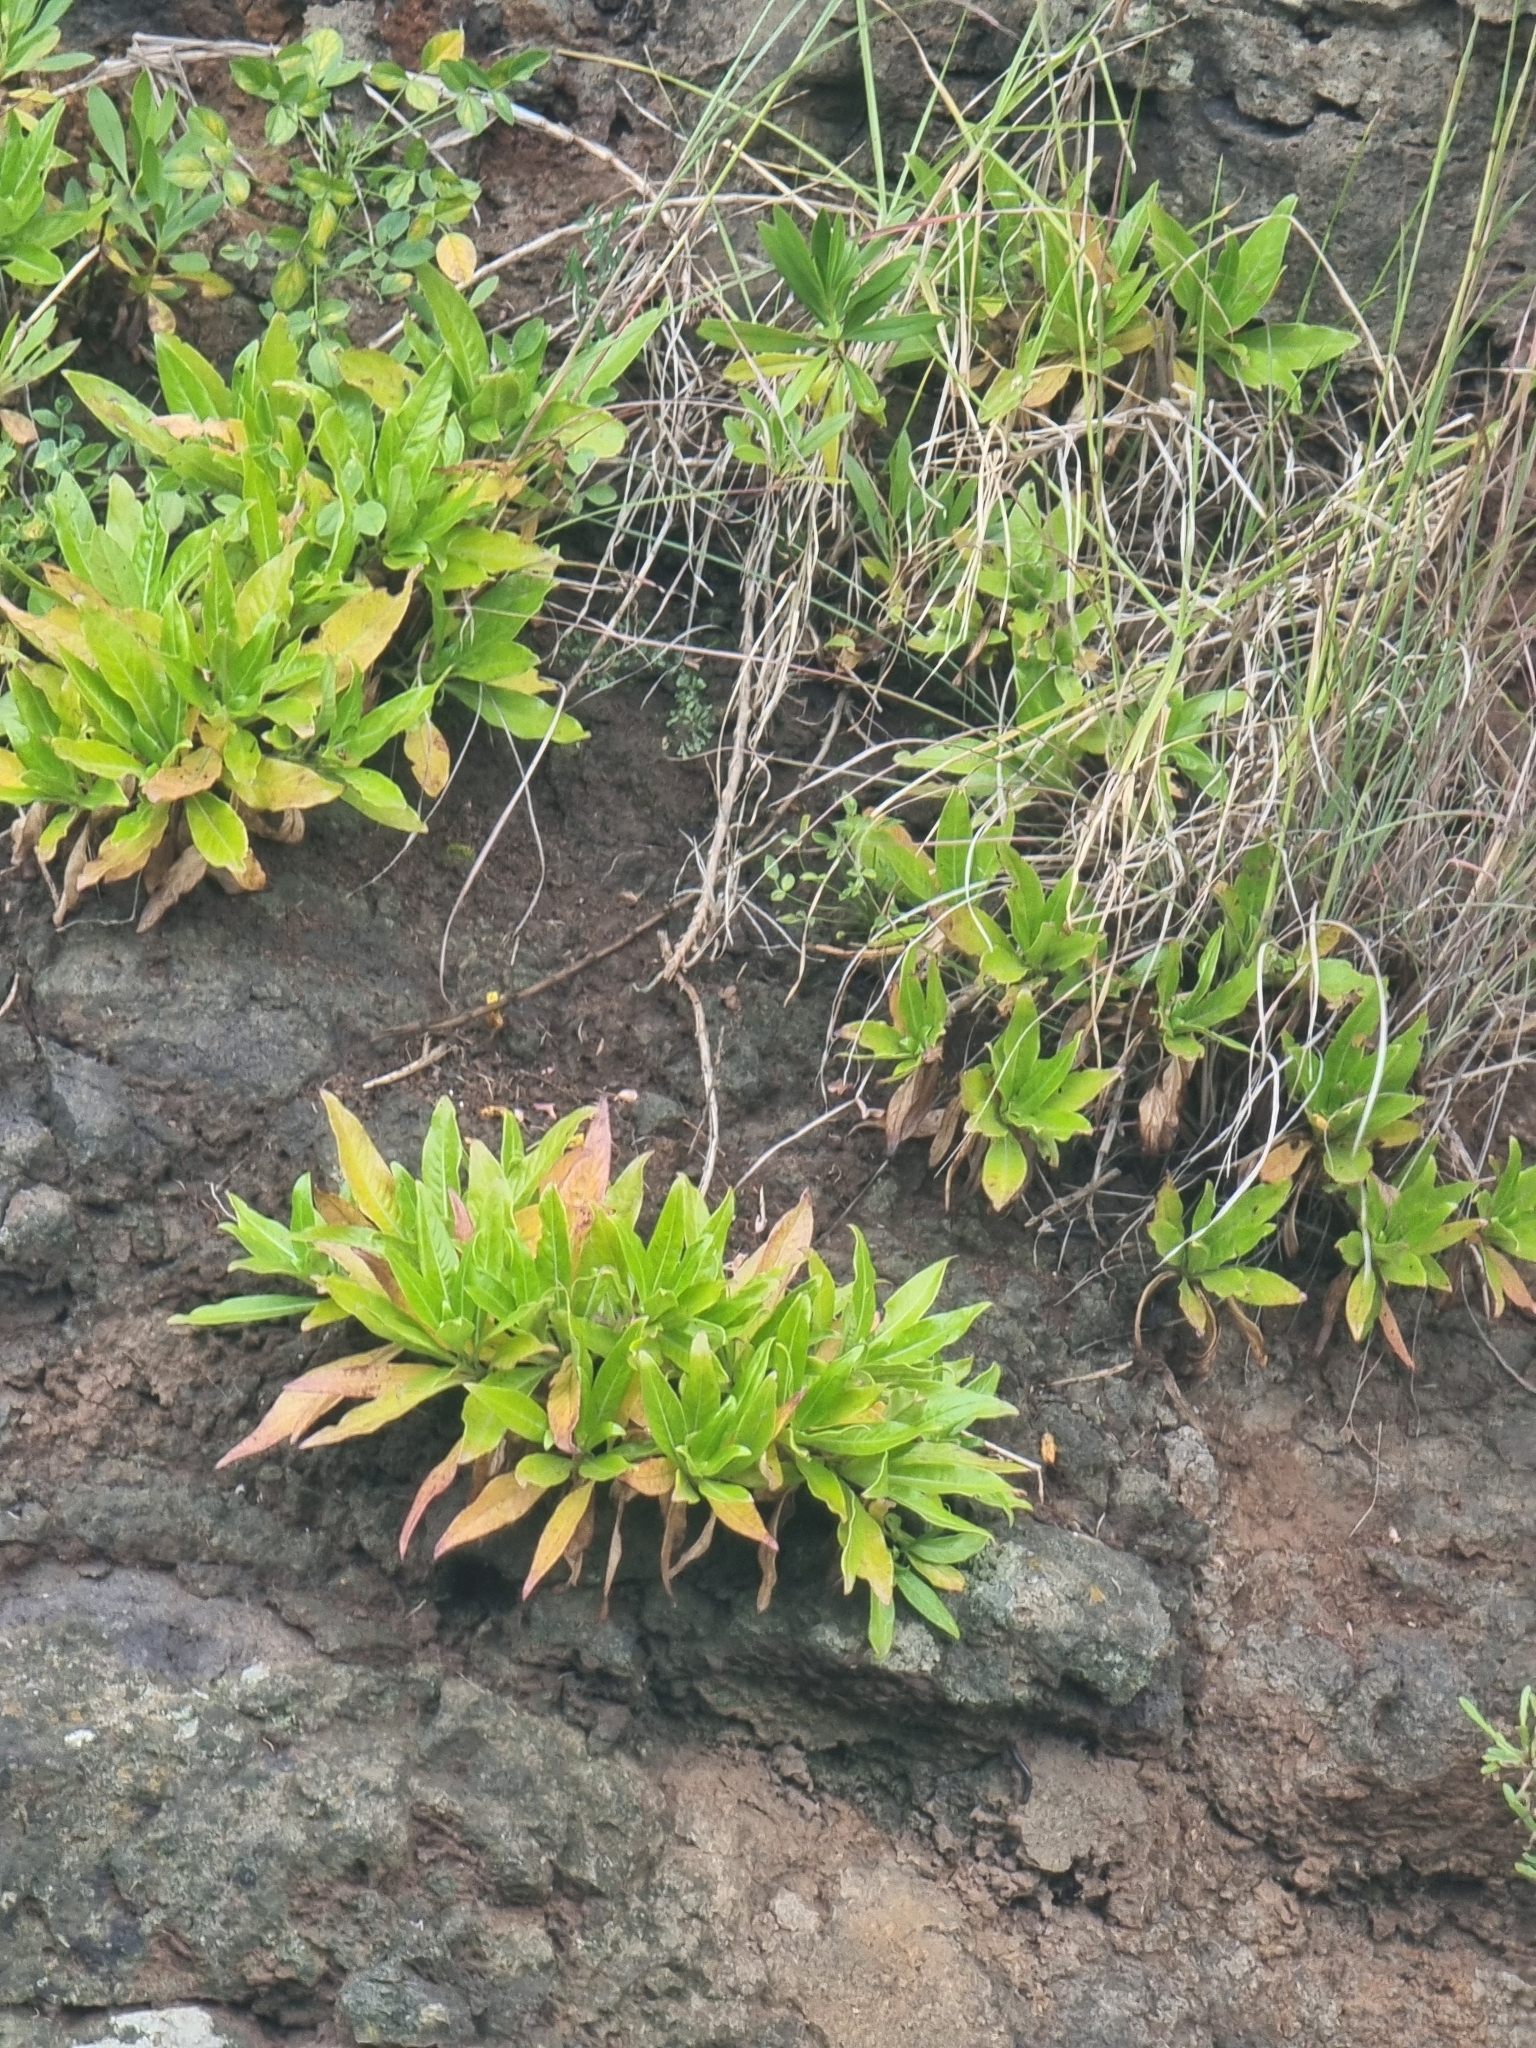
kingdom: Plantae
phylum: Tracheophyta
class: Magnoliopsida
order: Gentianales
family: Rubiaceae
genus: Phyllis
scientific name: Phyllis nobla
